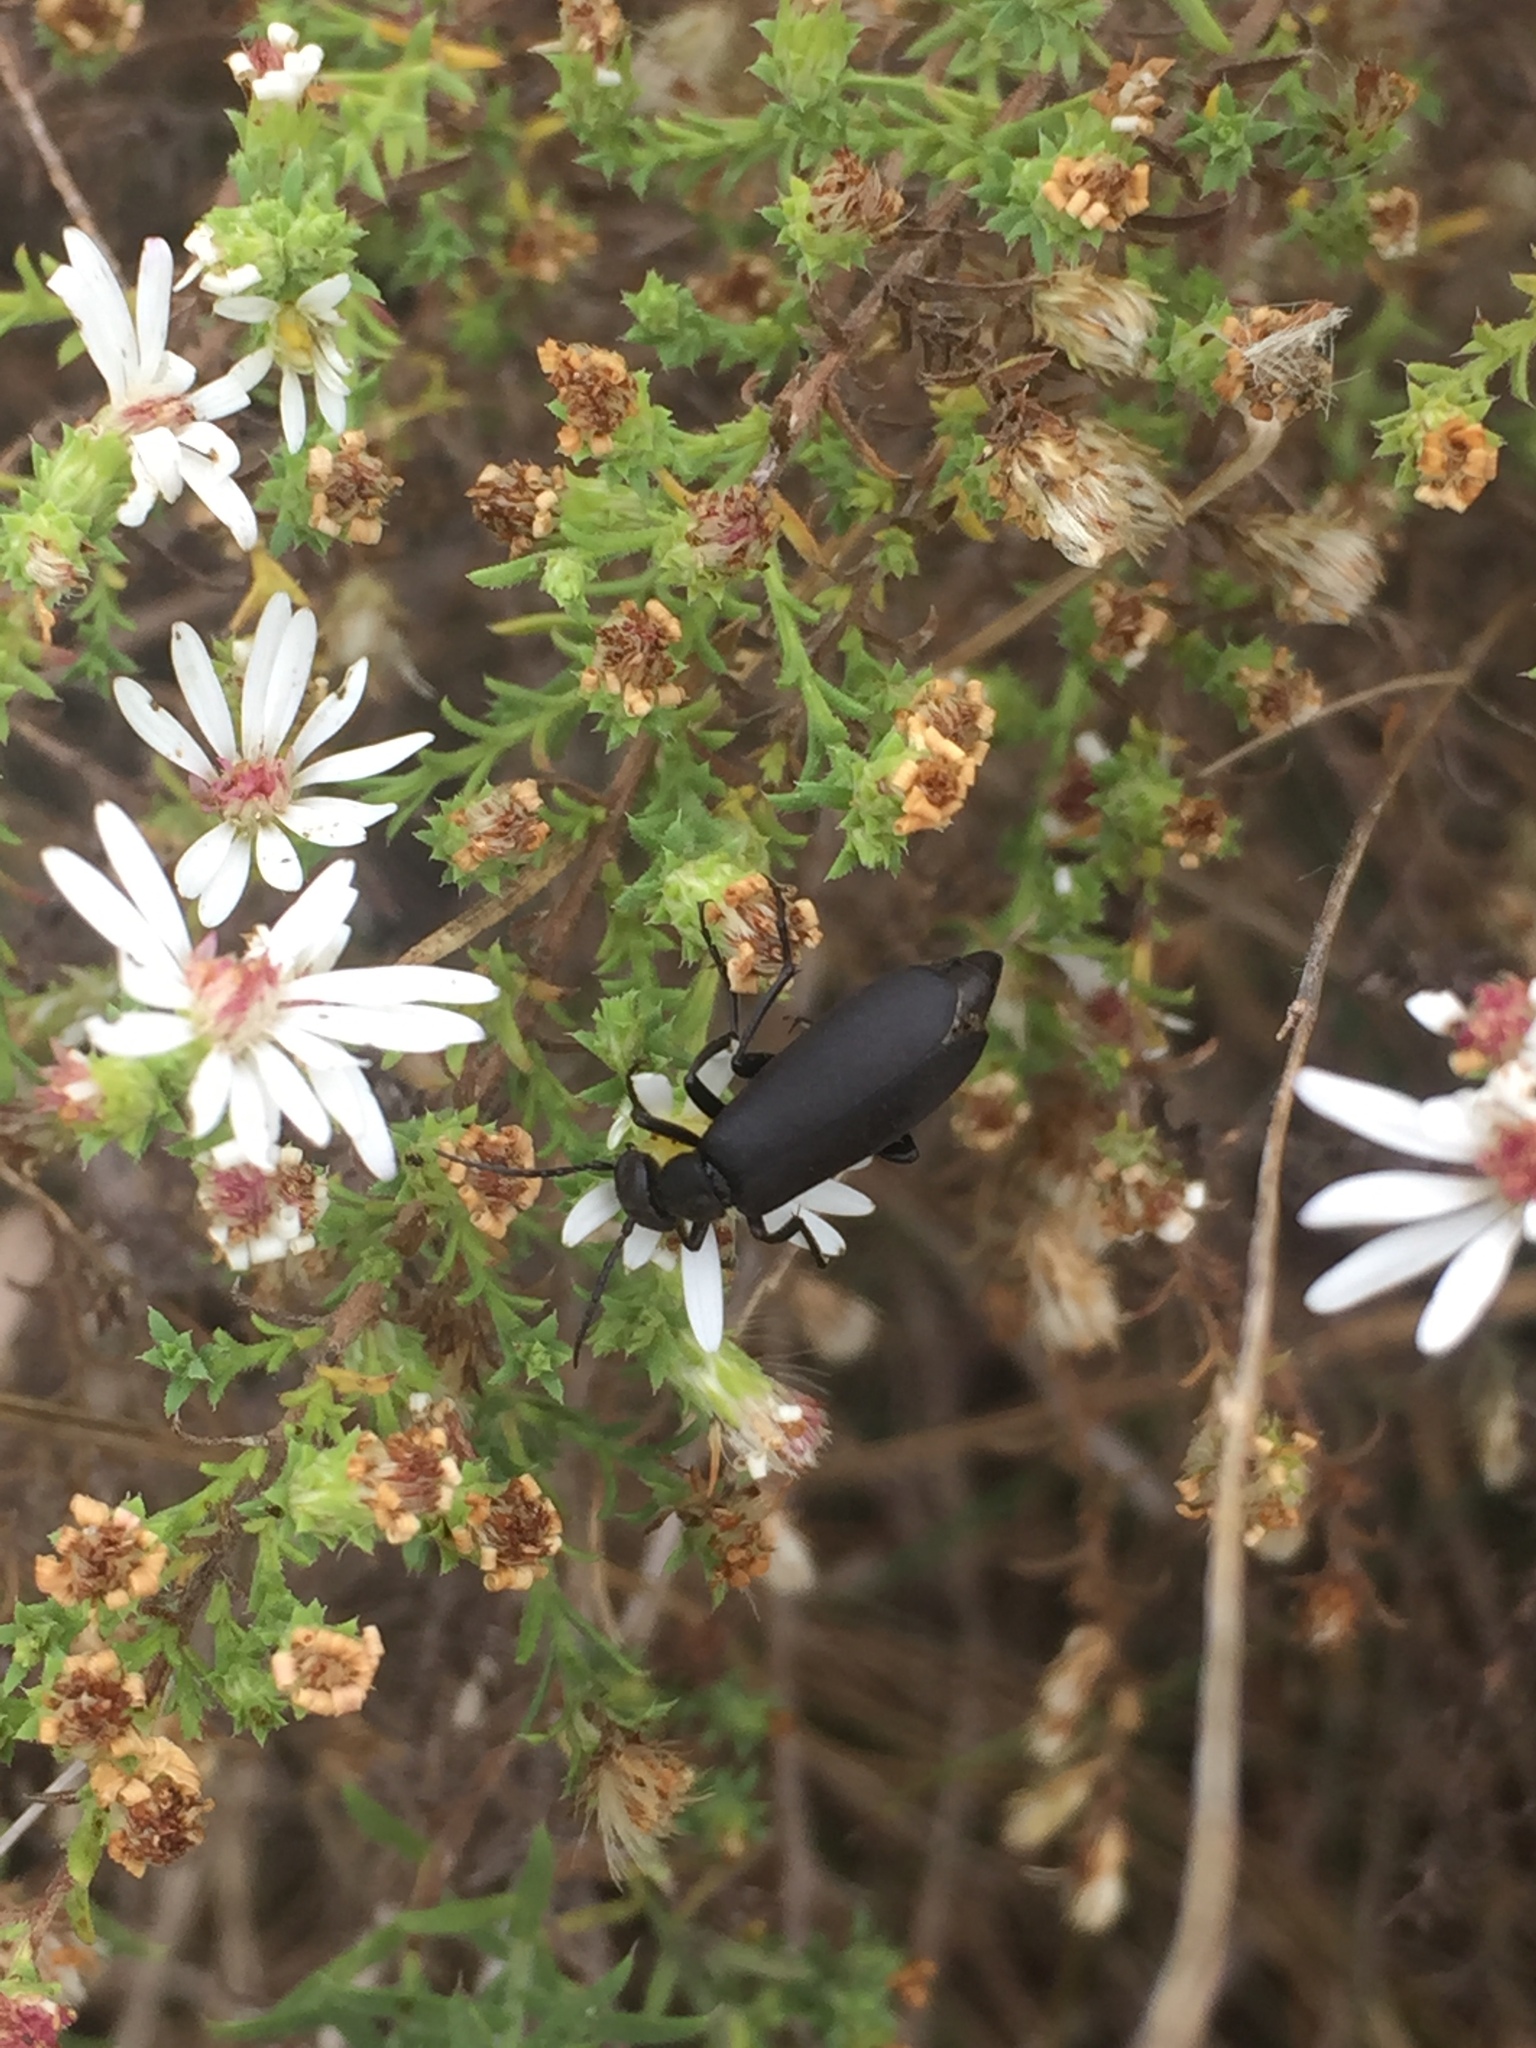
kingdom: Animalia
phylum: Arthropoda
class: Insecta
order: Coleoptera
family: Meloidae
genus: Epicauta
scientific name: Epicauta pensylvanica
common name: Black blister beetle
